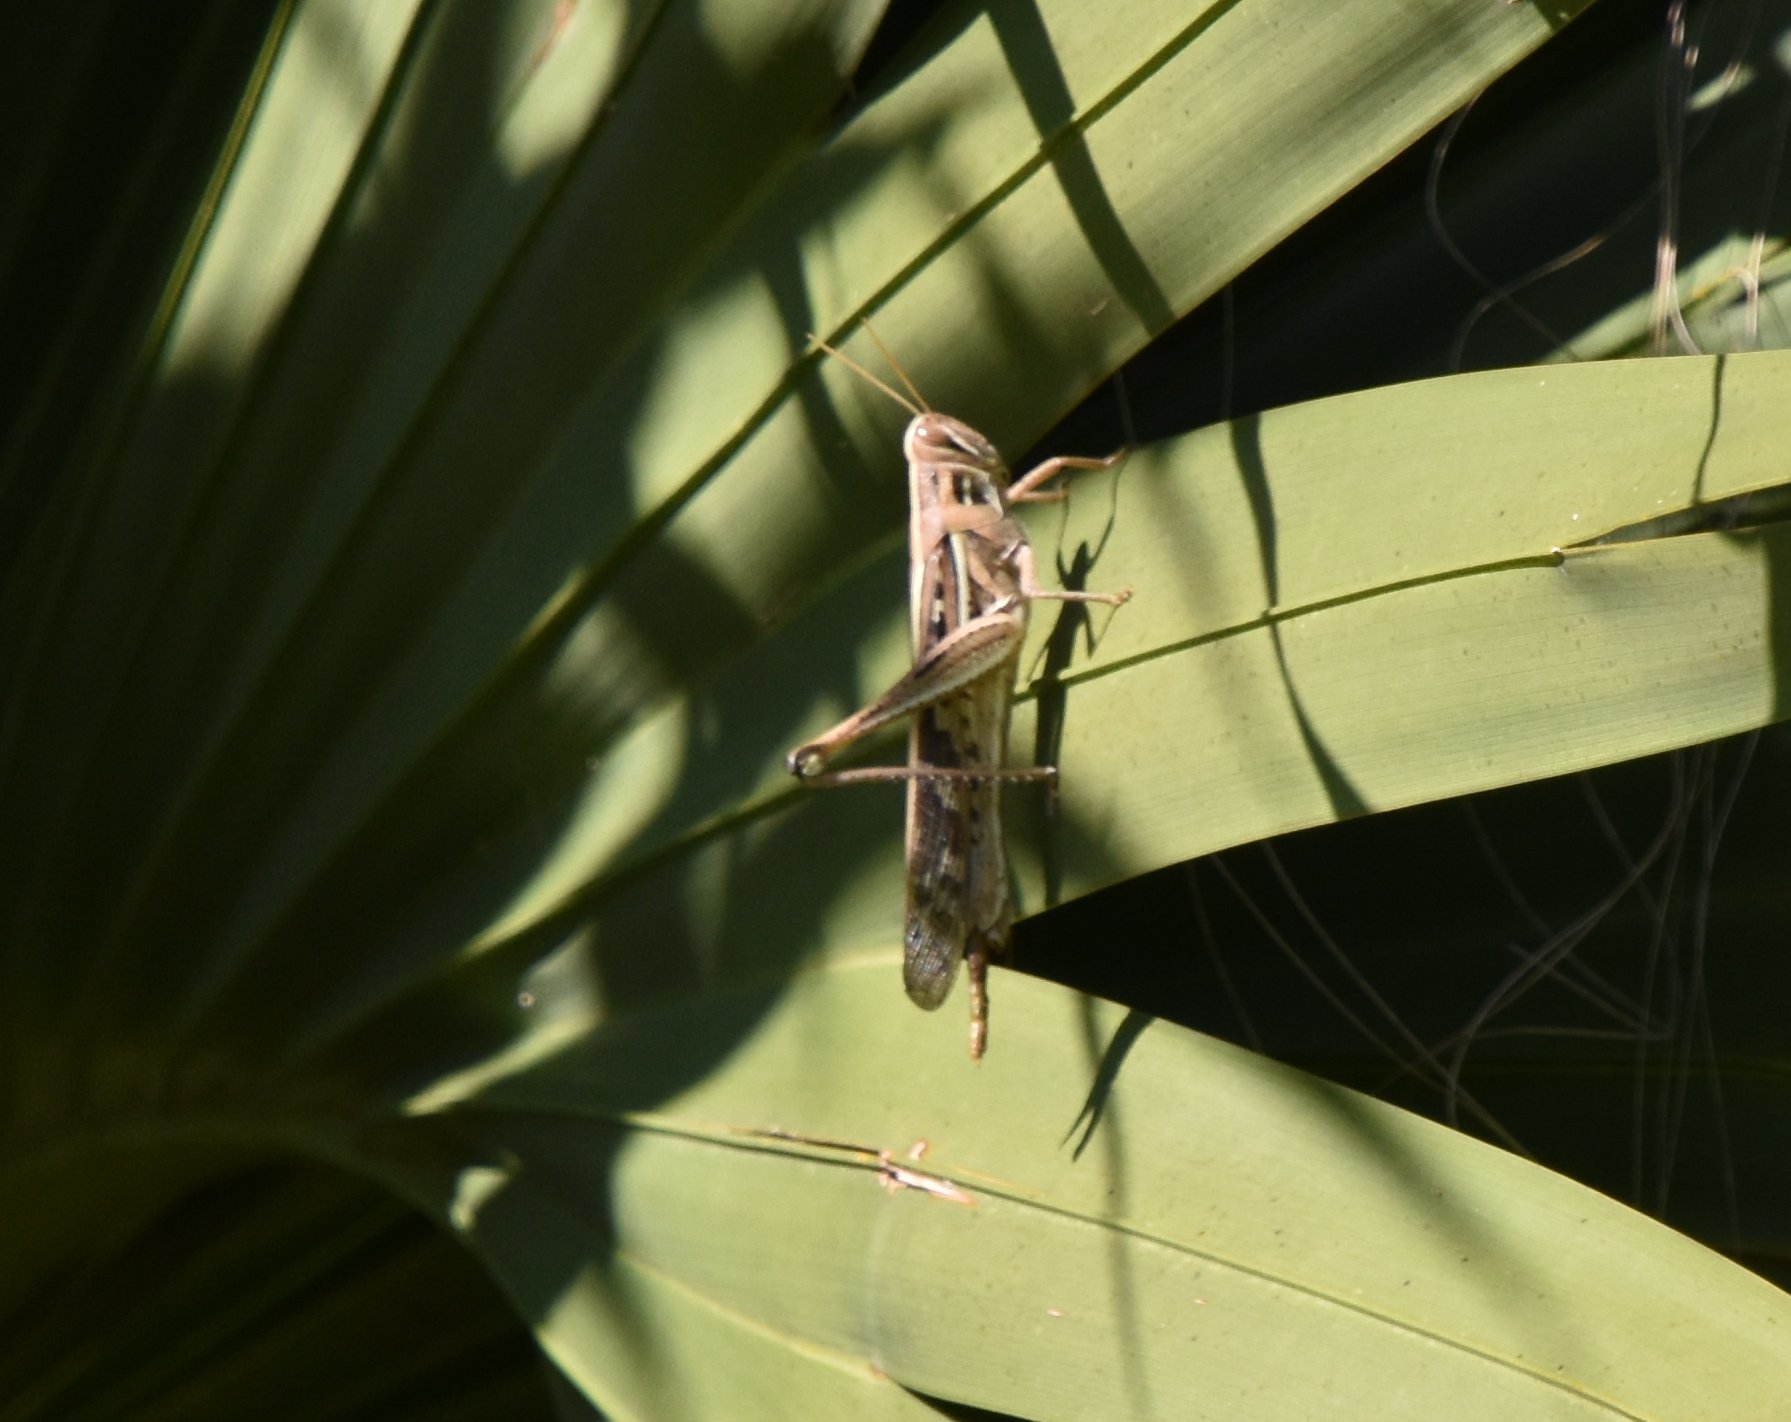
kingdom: Animalia
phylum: Arthropoda
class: Insecta
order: Orthoptera
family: Acrididae
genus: Schistocerca
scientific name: Schistocerca americana
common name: American bird locust
